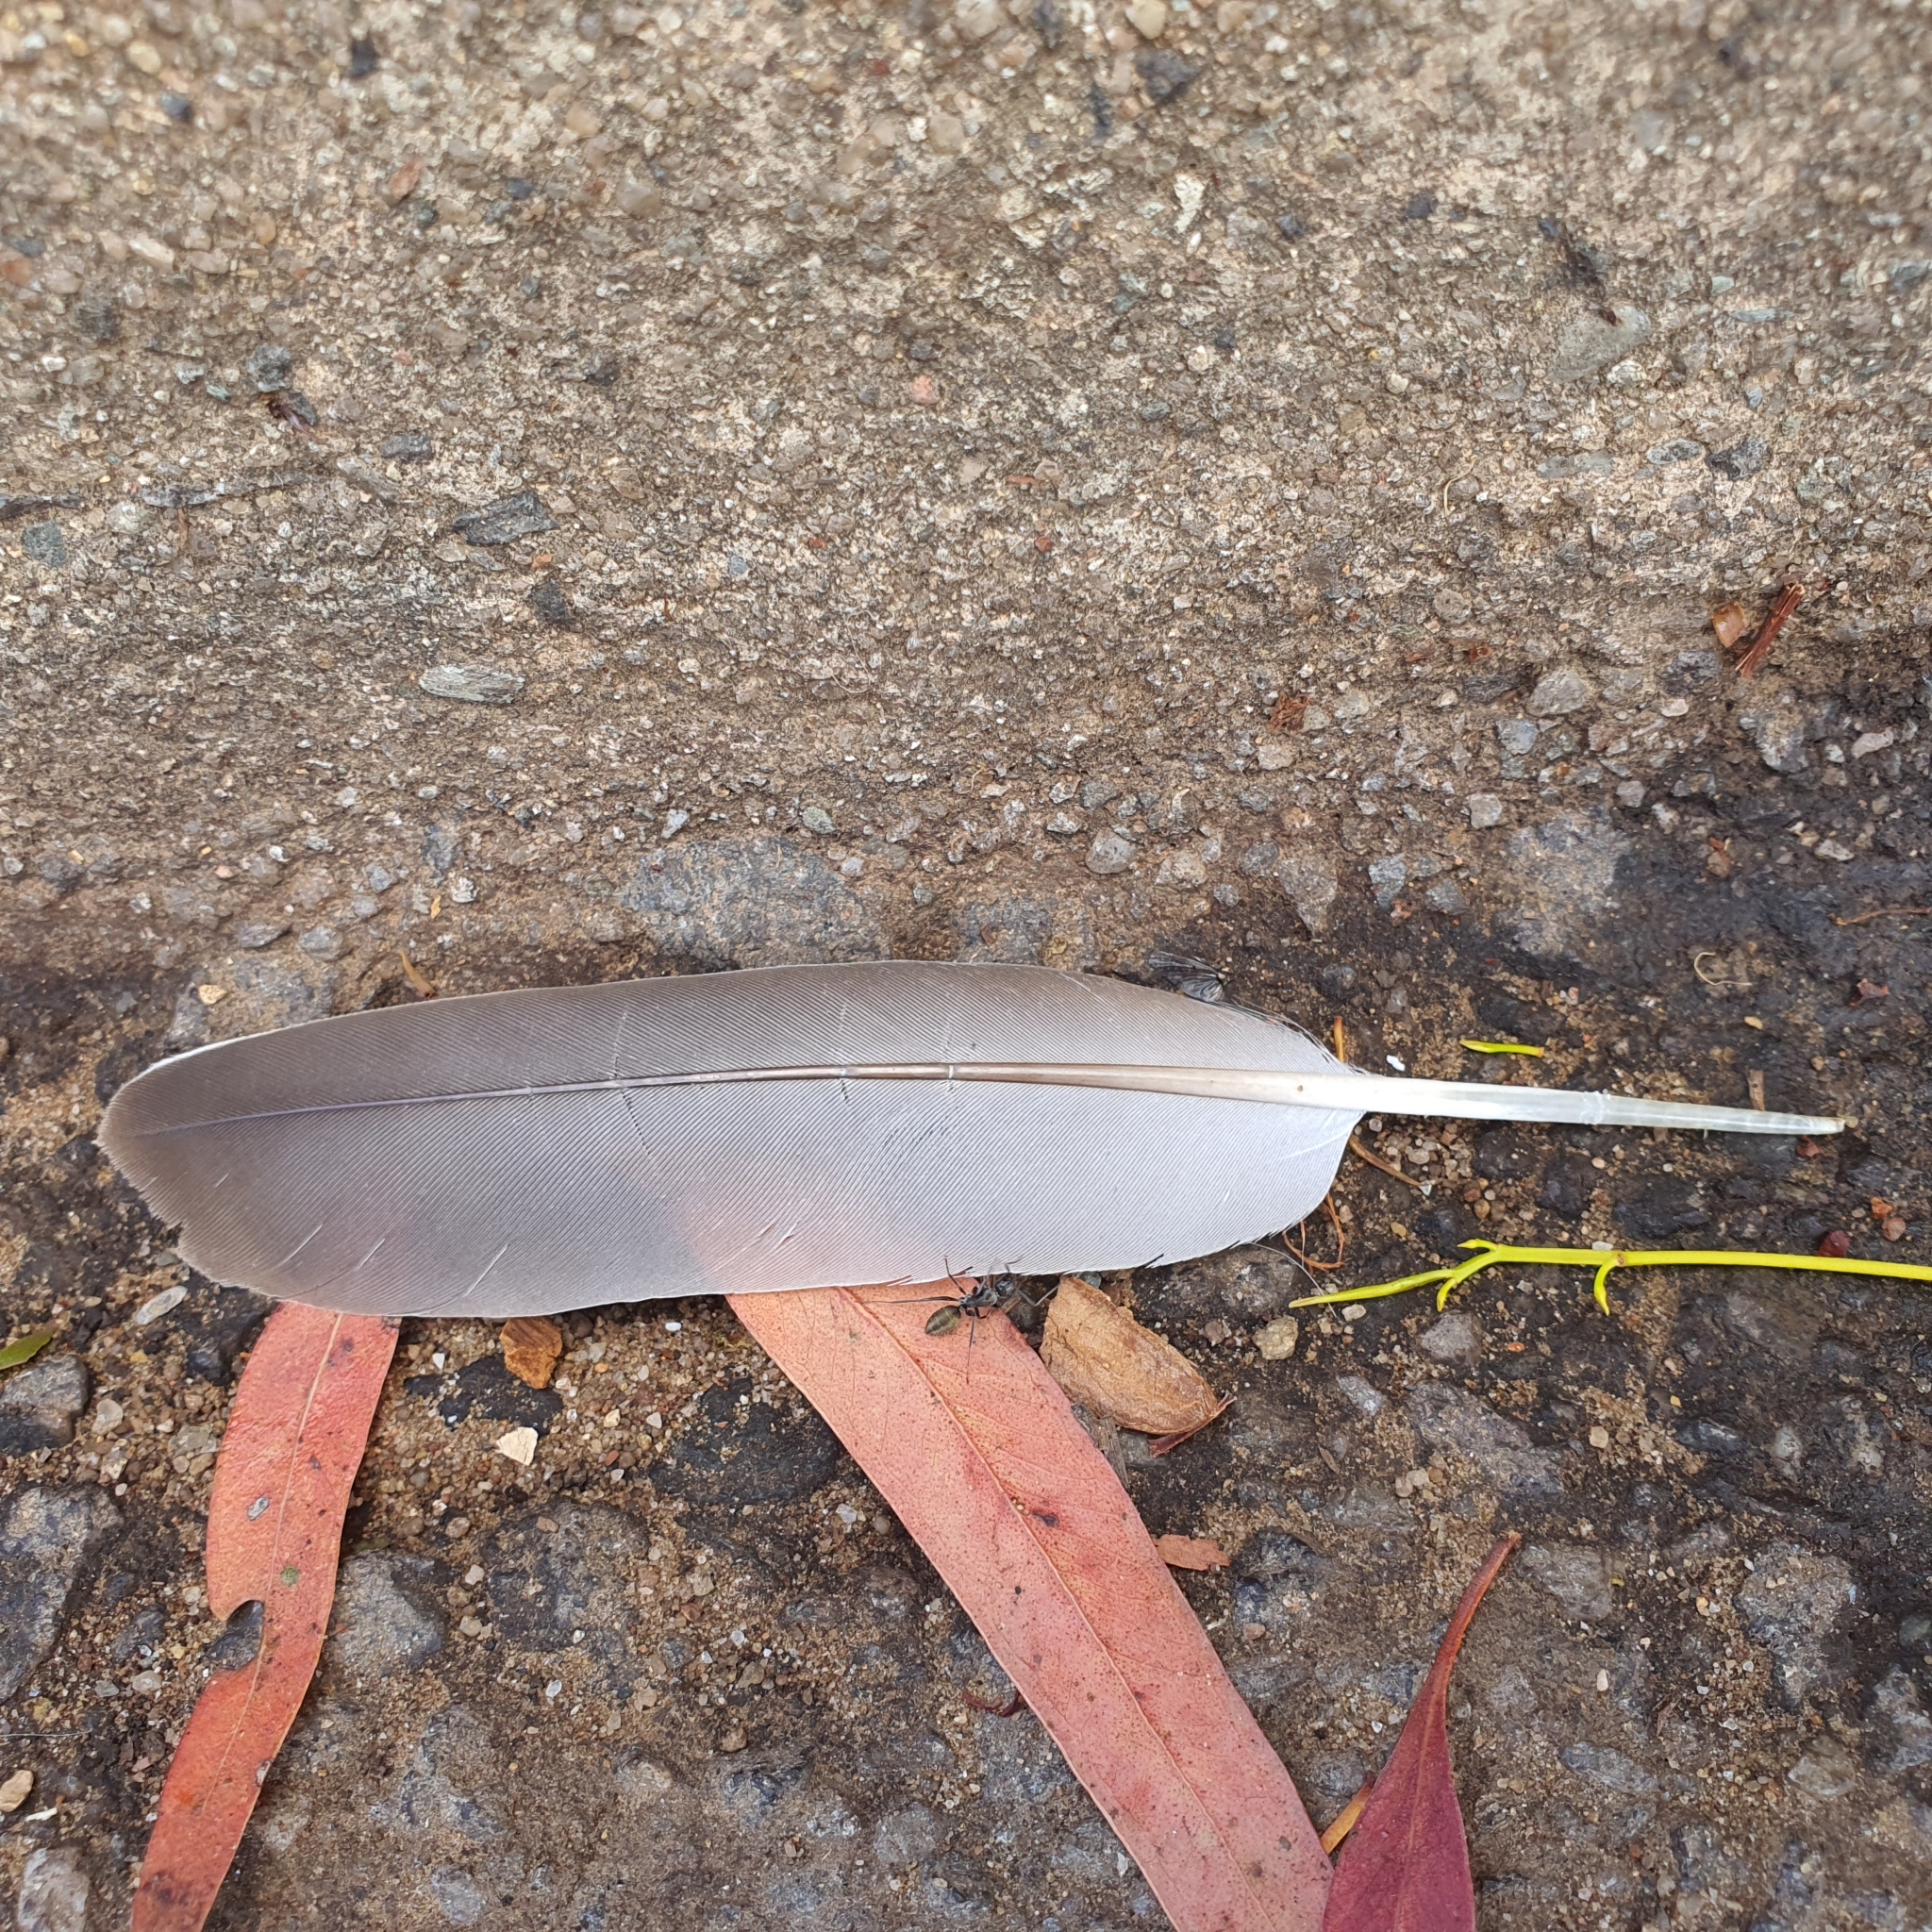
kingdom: Animalia
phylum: Chordata
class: Aves
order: Columbiformes
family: Columbidae
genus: Ocyphaps
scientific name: Ocyphaps lophotes
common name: Crested pigeon
